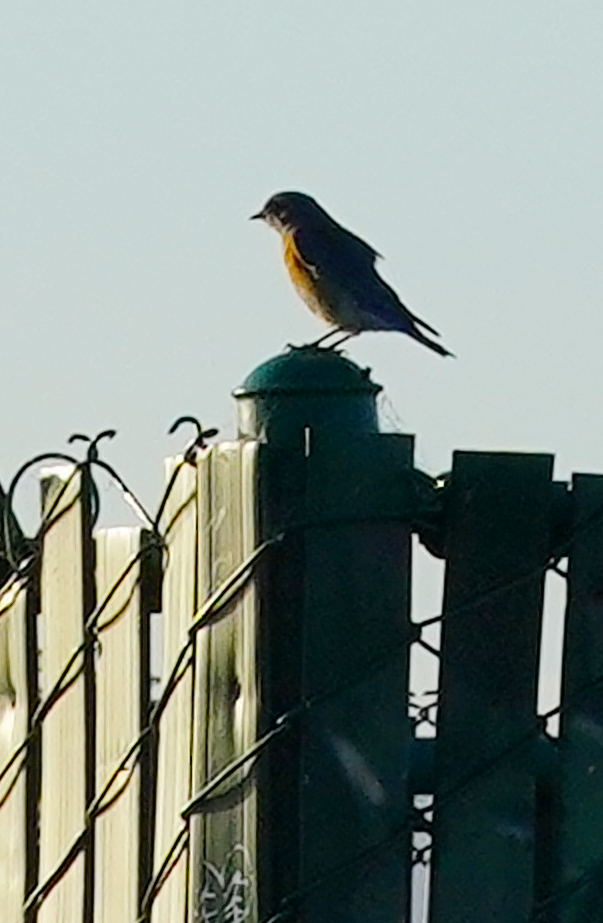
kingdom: Animalia
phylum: Chordata
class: Aves
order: Passeriformes
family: Turdidae
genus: Sialia
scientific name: Sialia mexicana
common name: Western bluebird
